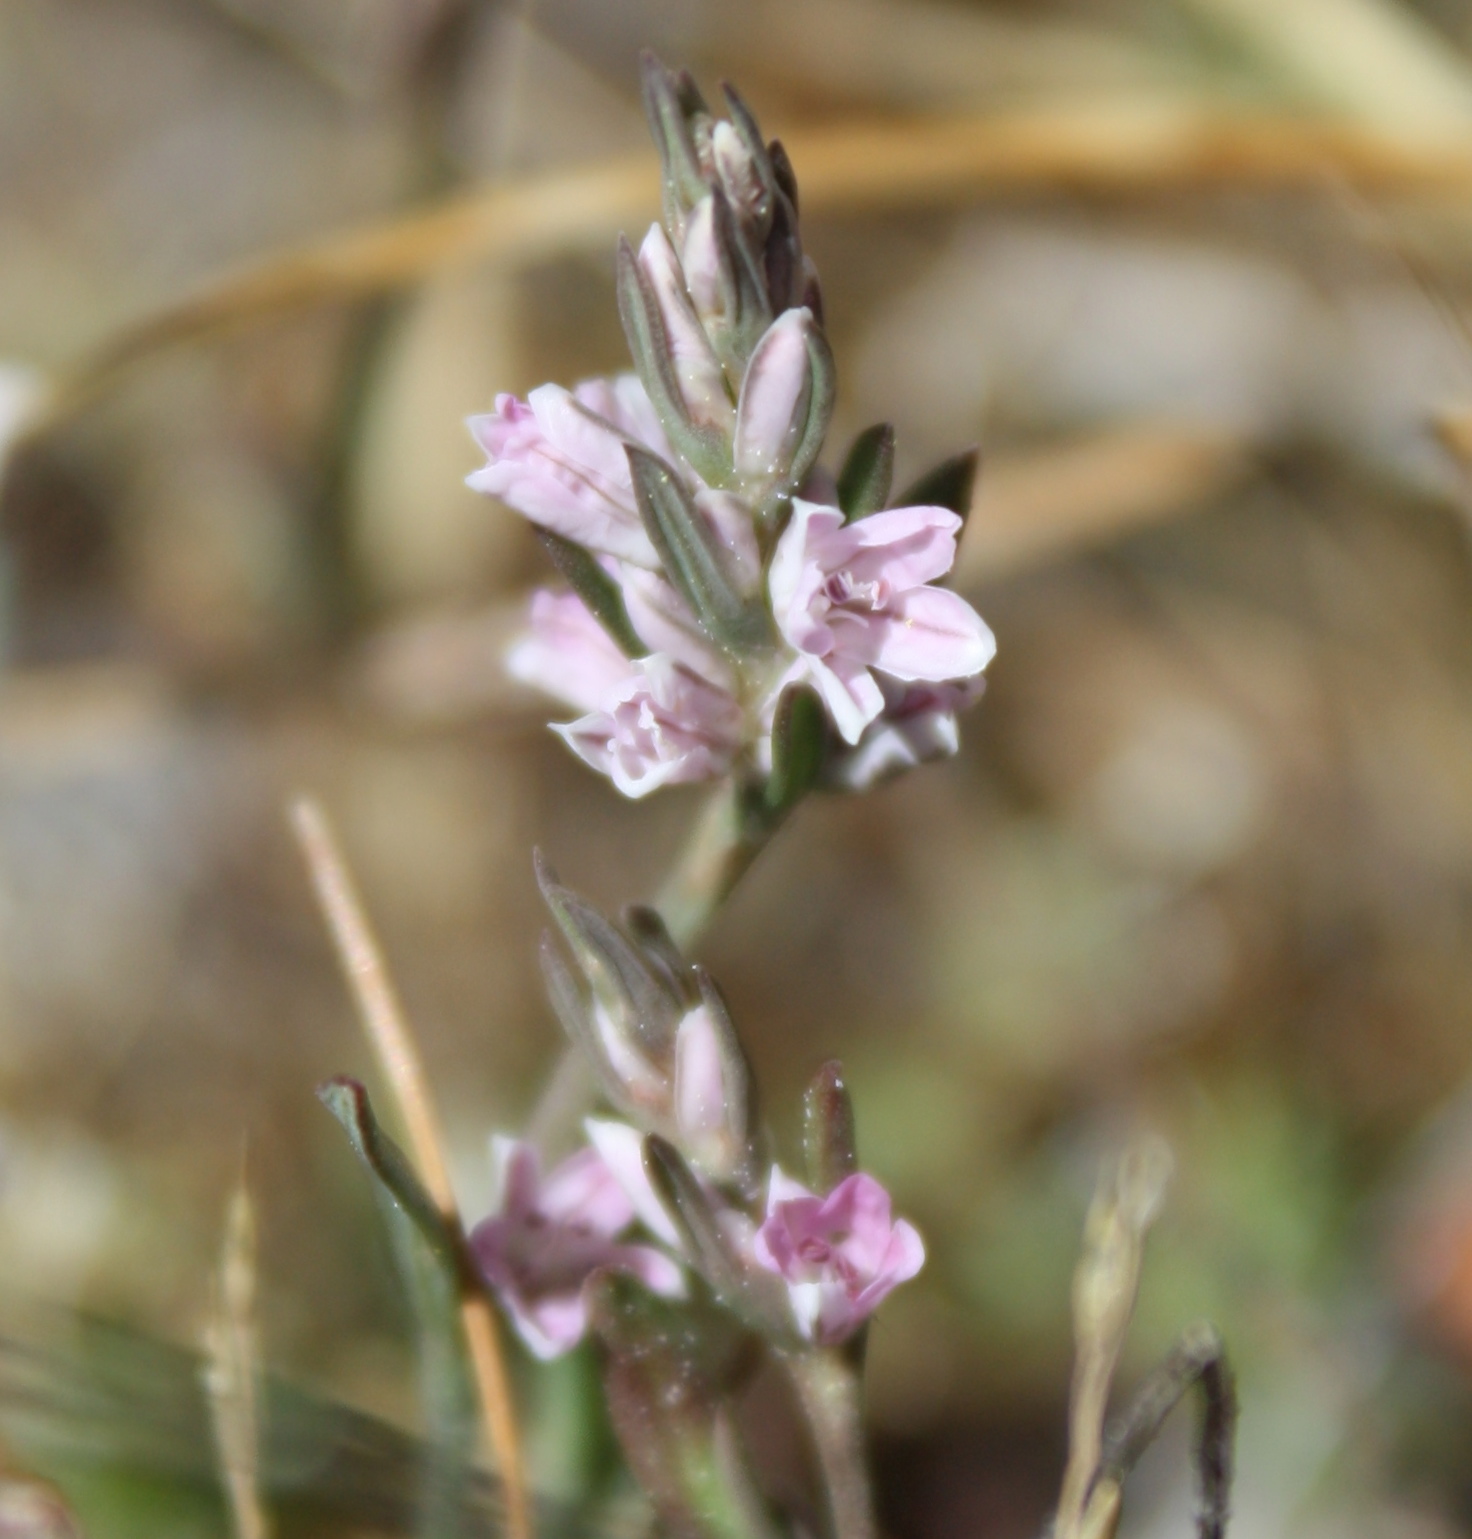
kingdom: Plantae
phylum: Tracheophyta
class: Magnoliopsida
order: Caryophyllales
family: Polygonaceae
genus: Polygonum
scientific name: Polygonum spergulariiforme
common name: Fall knotweed
